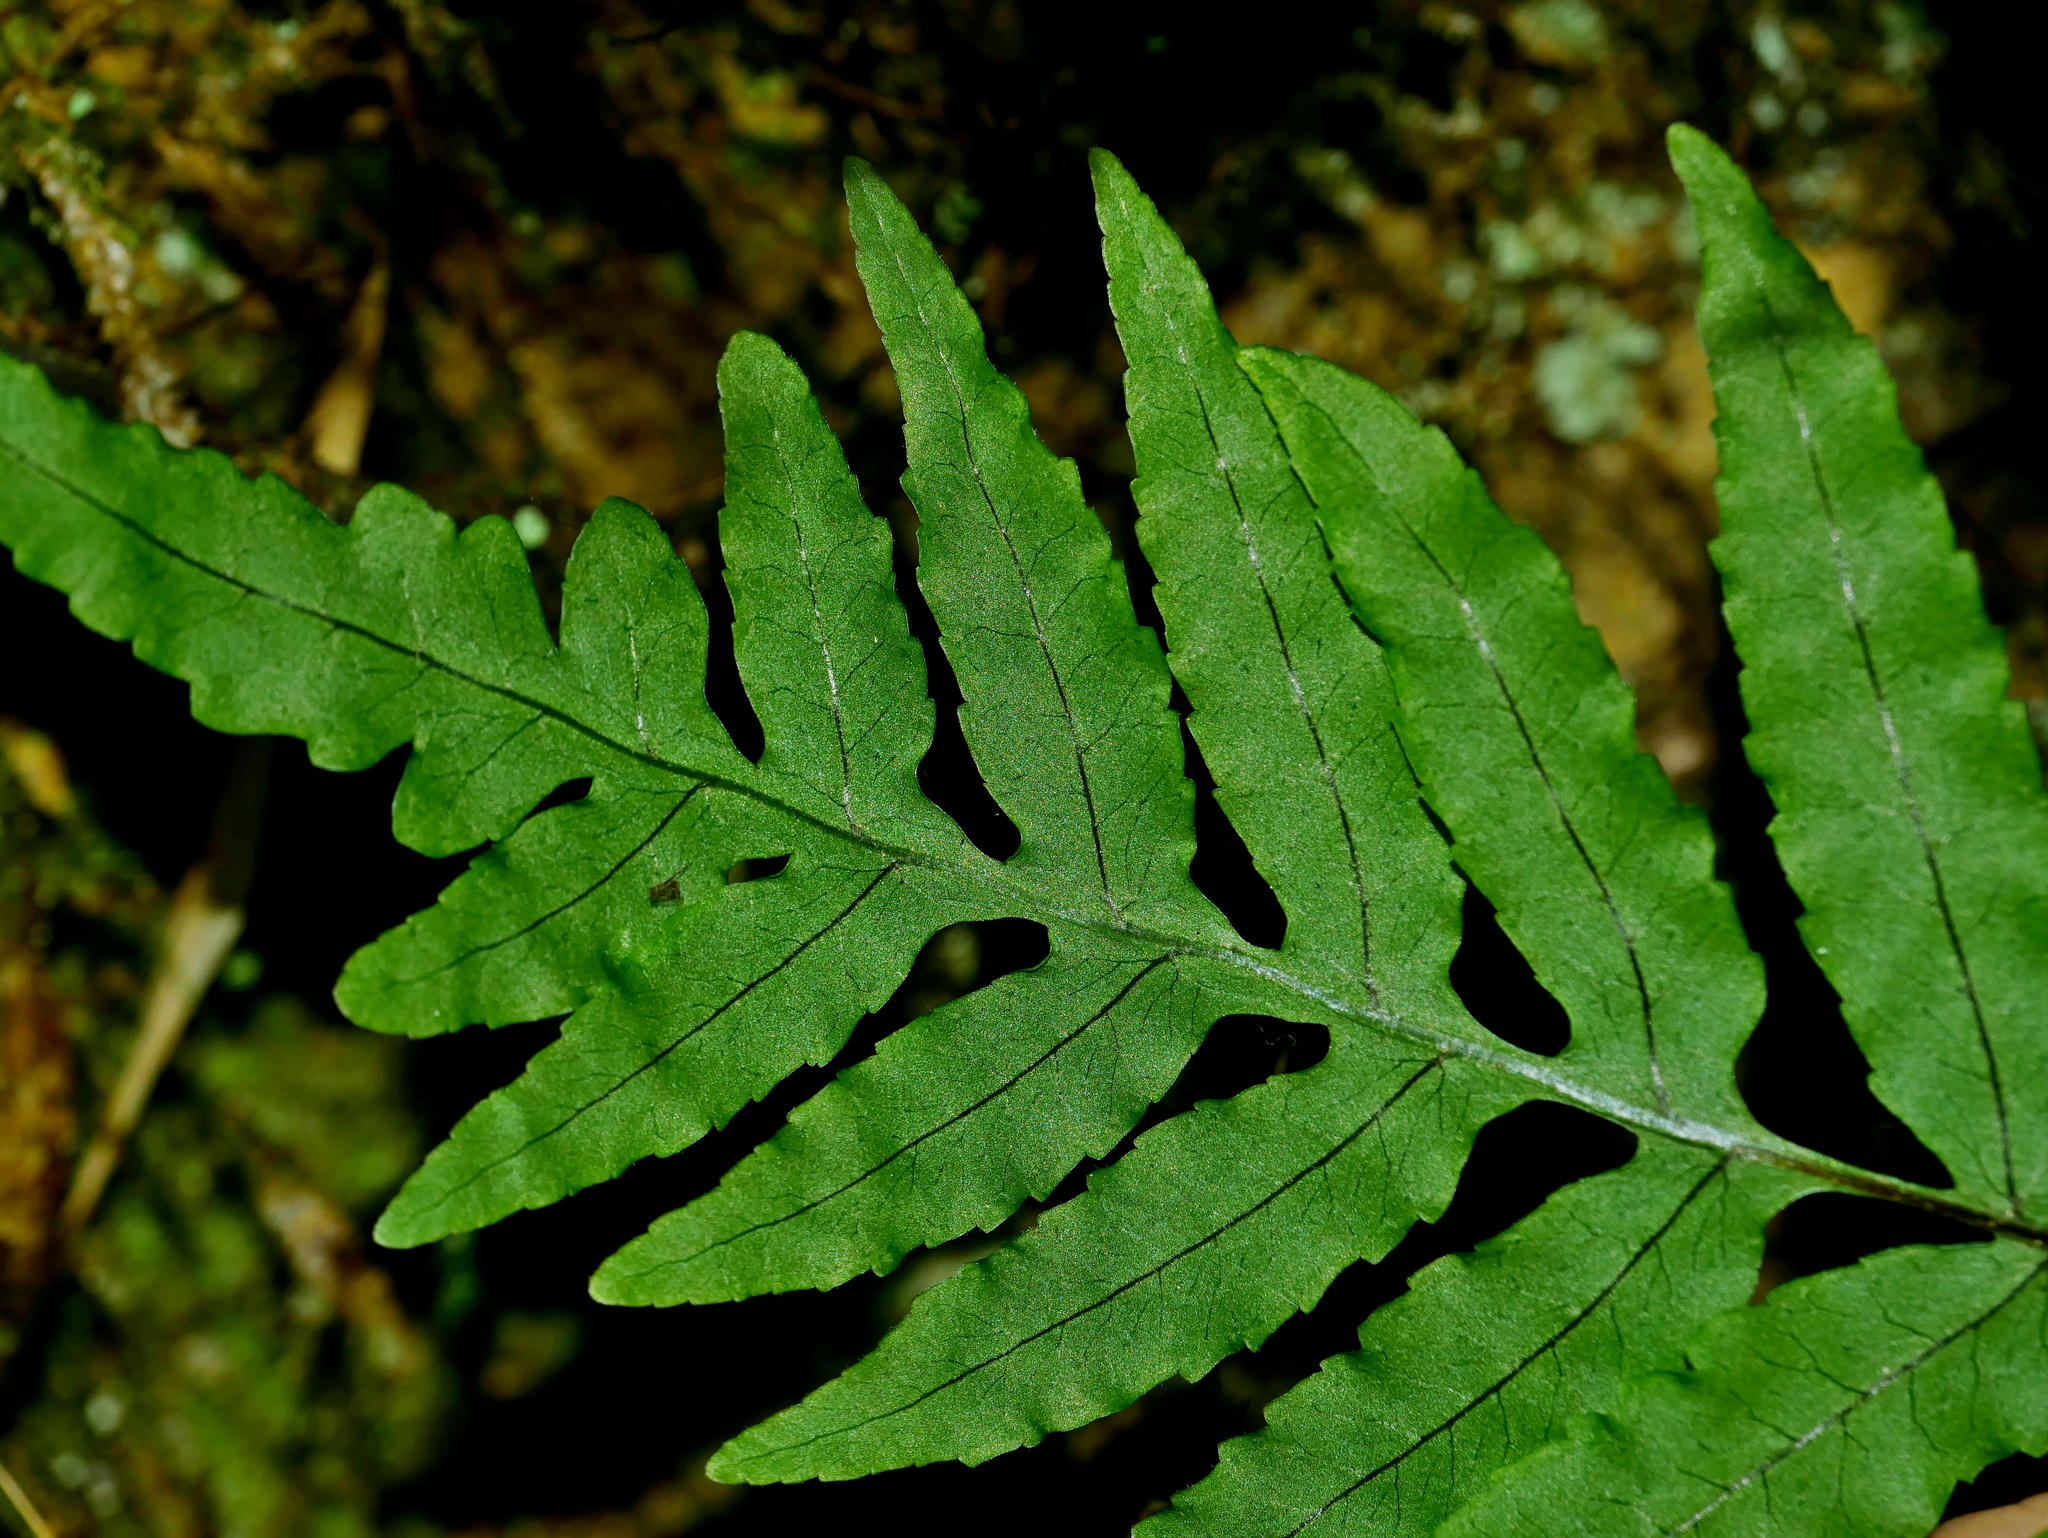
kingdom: Plantae
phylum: Tracheophyta
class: Polypodiopsida
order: Polypodiales
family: Polypodiaceae
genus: Goniophlebium
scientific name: Goniophlebium fieldingianum
